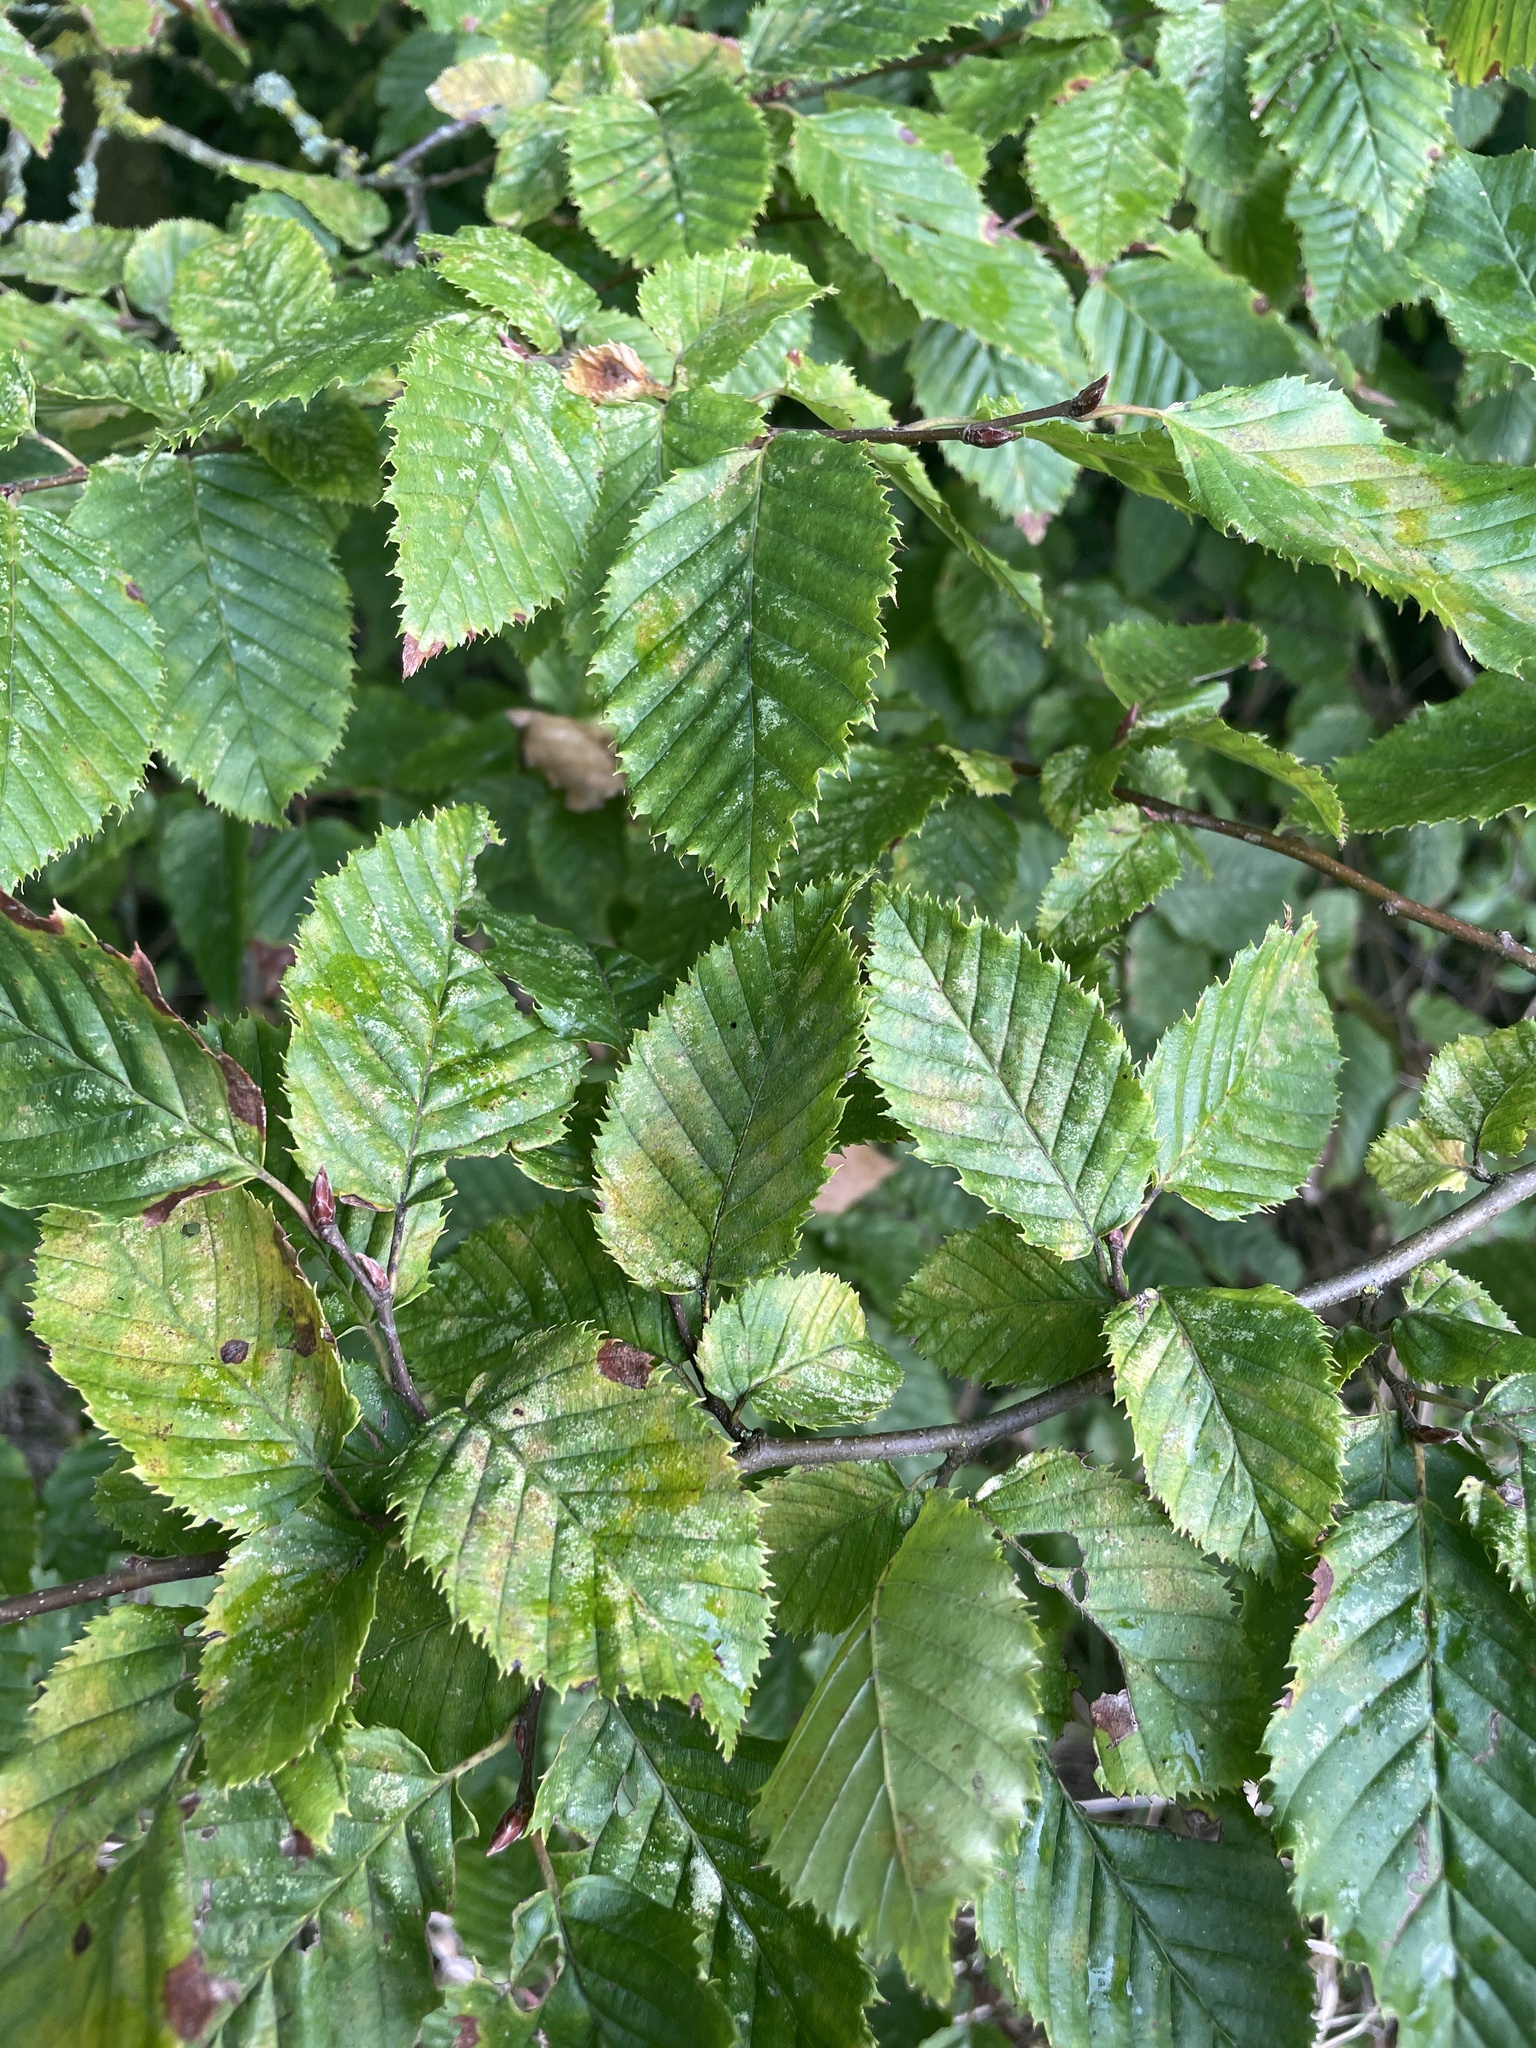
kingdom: Plantae
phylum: Tracheophyta
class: Magnoliopsida
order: Fagales
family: Betulaceae
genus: Carpinus
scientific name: Carpinus betulus
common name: Hornbeam
